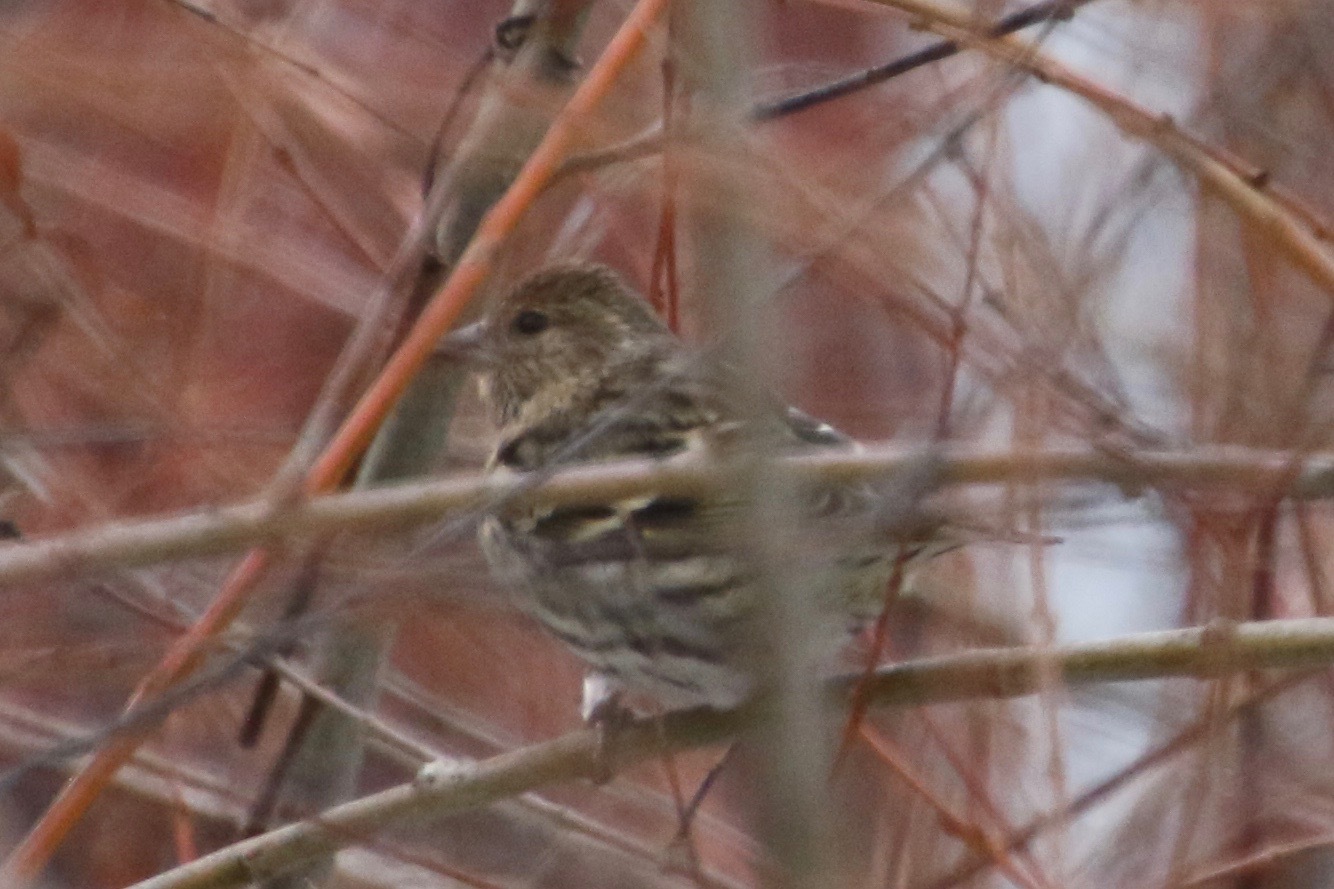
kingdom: Animalia
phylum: Chordata
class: Aves
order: Passeriformes
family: Fringillidae
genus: Spinus
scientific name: Spinus pinus
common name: Pine siskin
